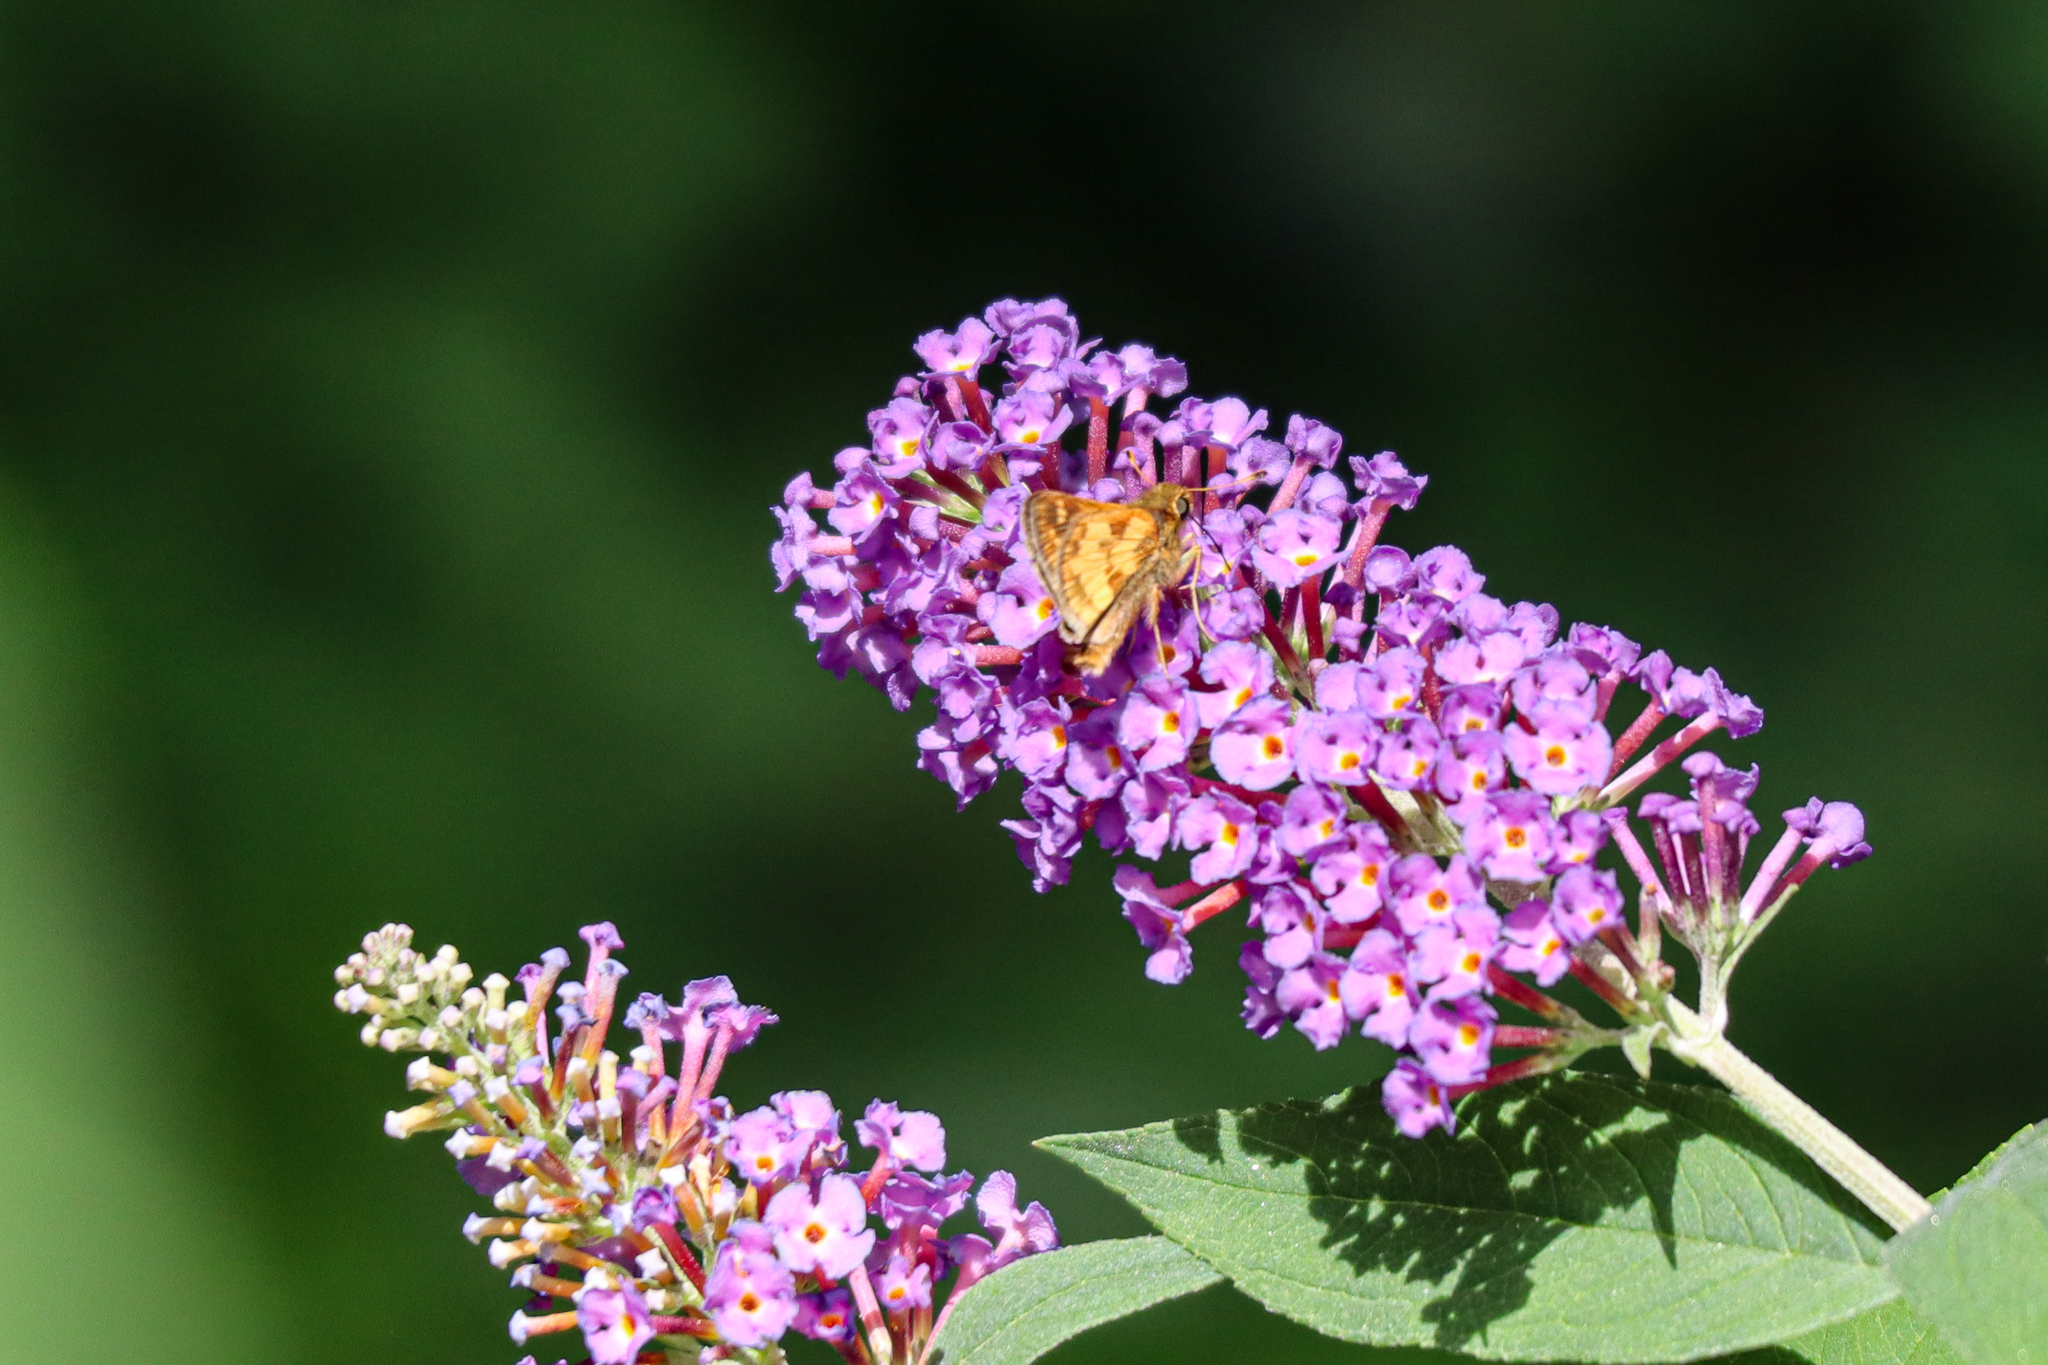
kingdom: Animalia
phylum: Arthropoda
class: Insecta
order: Lepidoptera
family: Hesperiidae
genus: Polites
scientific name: Polites coras
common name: Peck's skipper
